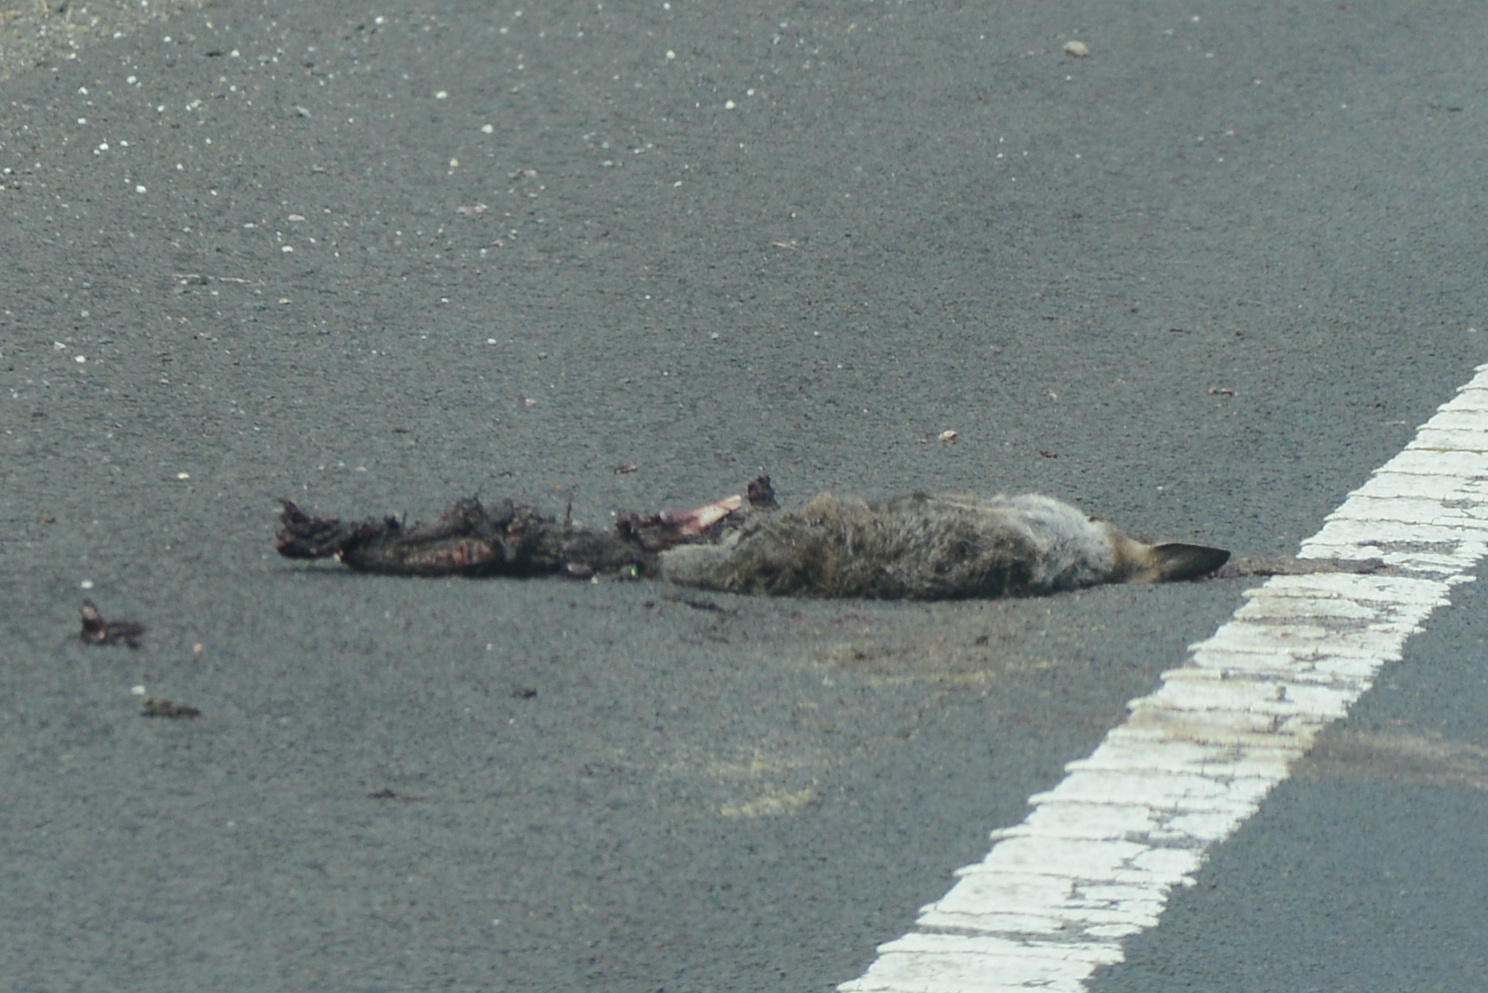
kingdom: Animalia
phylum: Chordata
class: Mammalia
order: Diprotodontia
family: Macropodidae
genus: Notamacropus
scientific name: Notamacropus rufogriseus
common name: Red-necked wallaby
